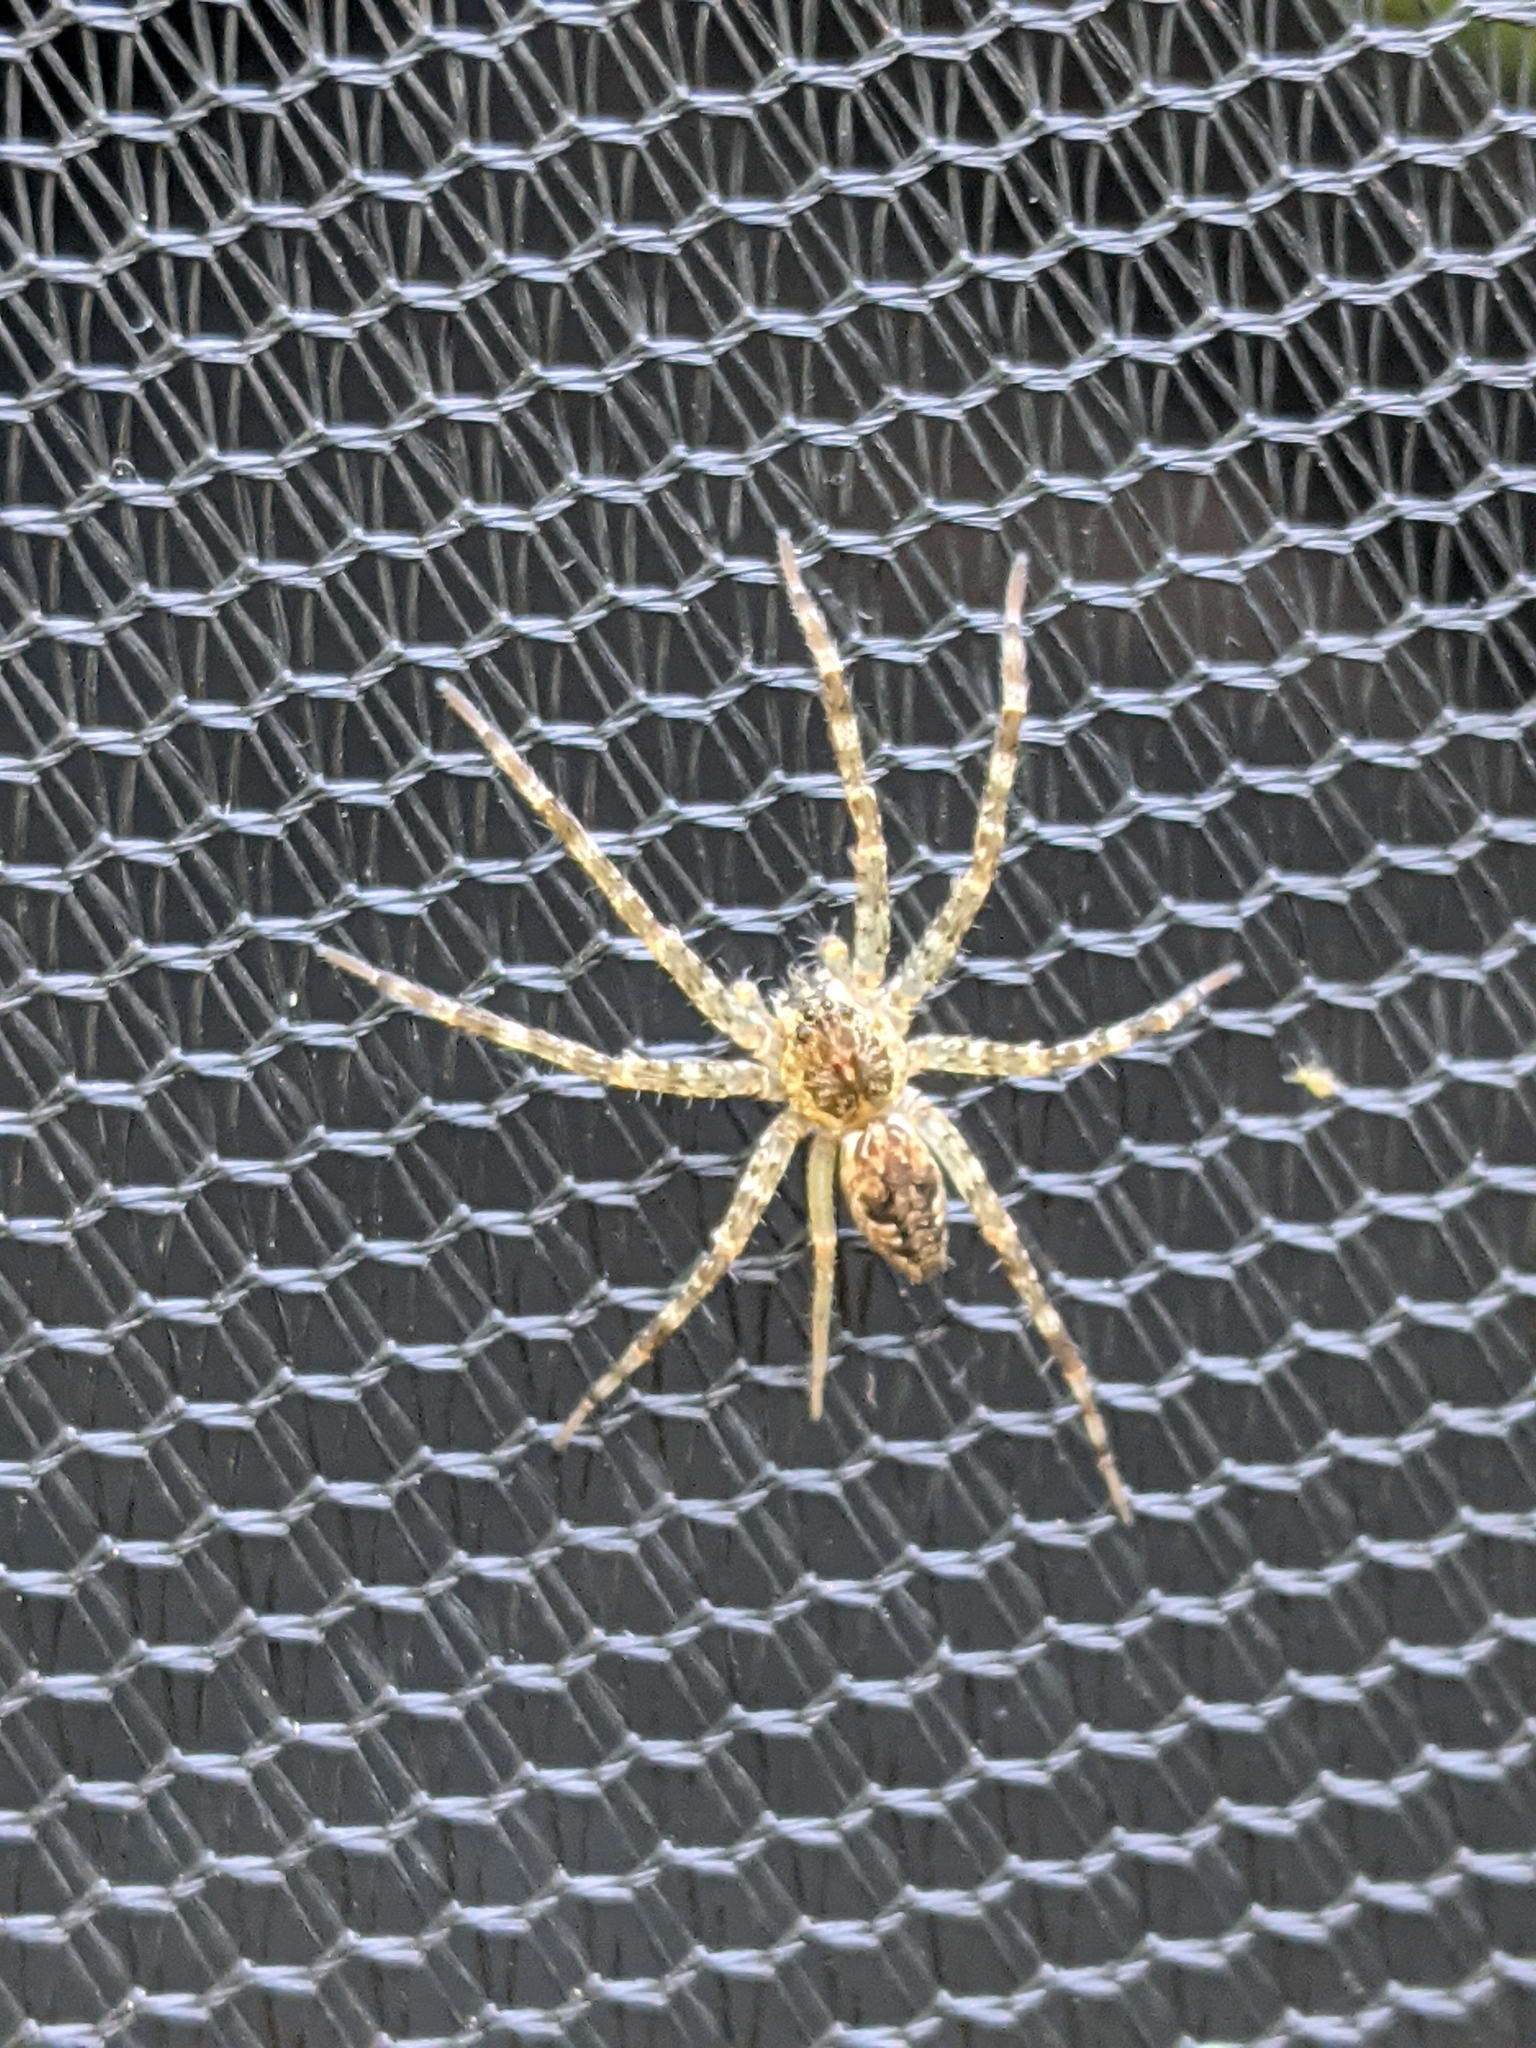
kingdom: Animalia
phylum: Arthropoda
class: Arachnida
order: Araneae
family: Pisauridae
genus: Dolomedes
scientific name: Dolomedes tenebrosus
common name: Dark fishing spider
